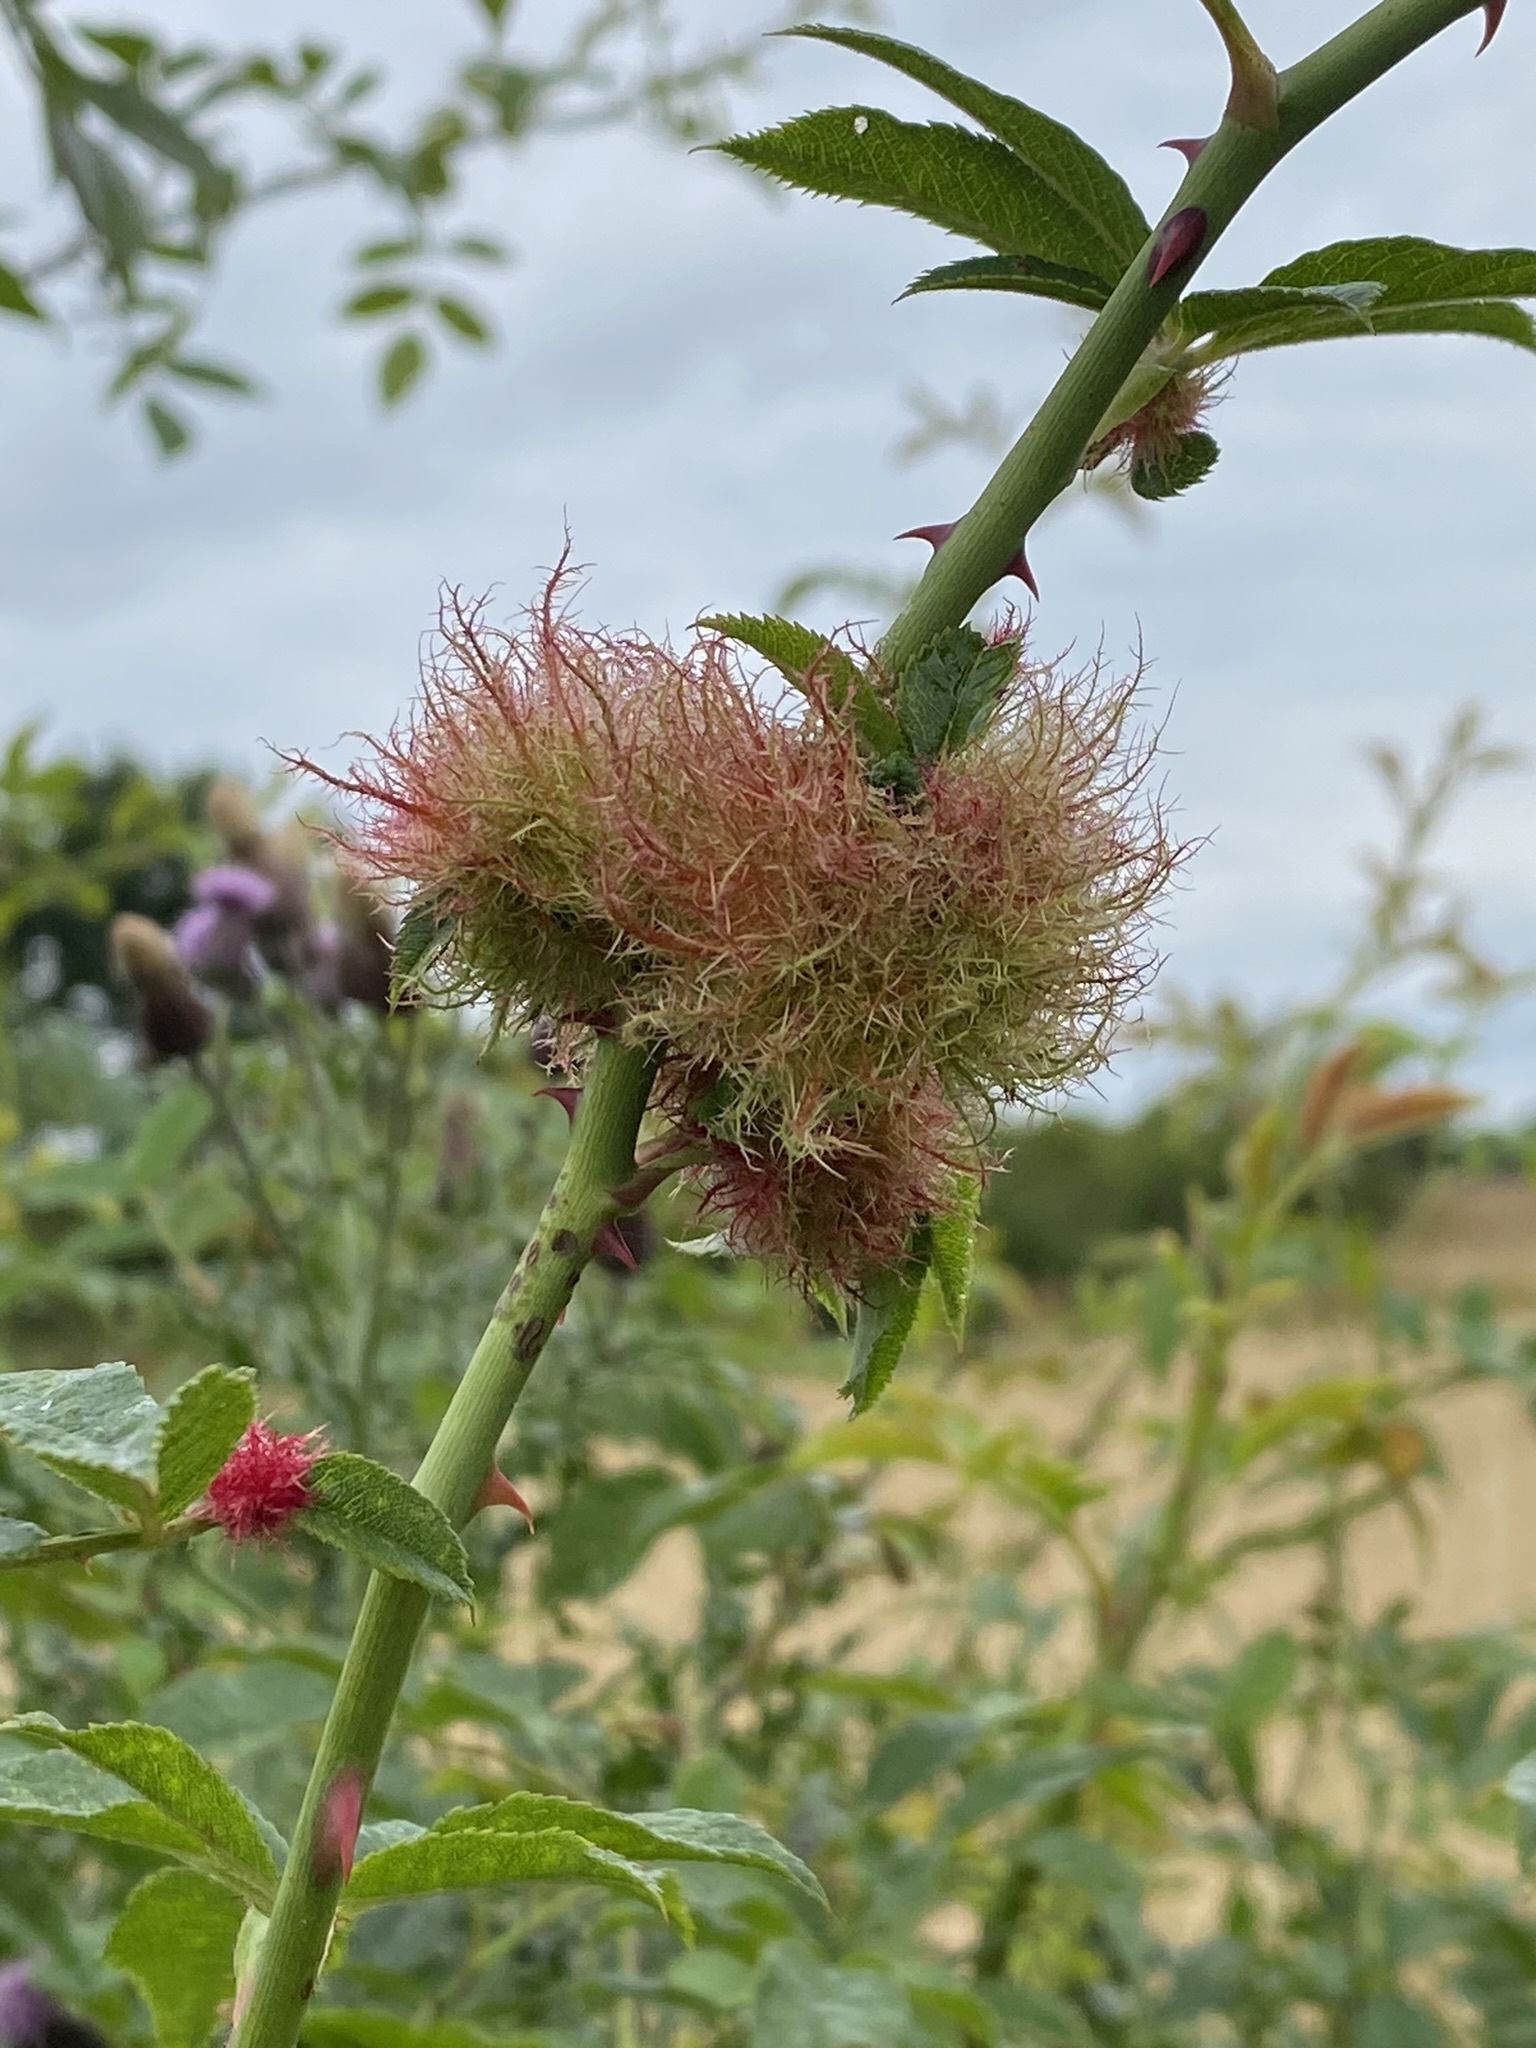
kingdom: Animalia
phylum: Arthropoda
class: Insecta
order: Hymenoptera
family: Cynipidae
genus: Diplolepis
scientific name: Diplolepis rosae
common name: Bedeguar gall
